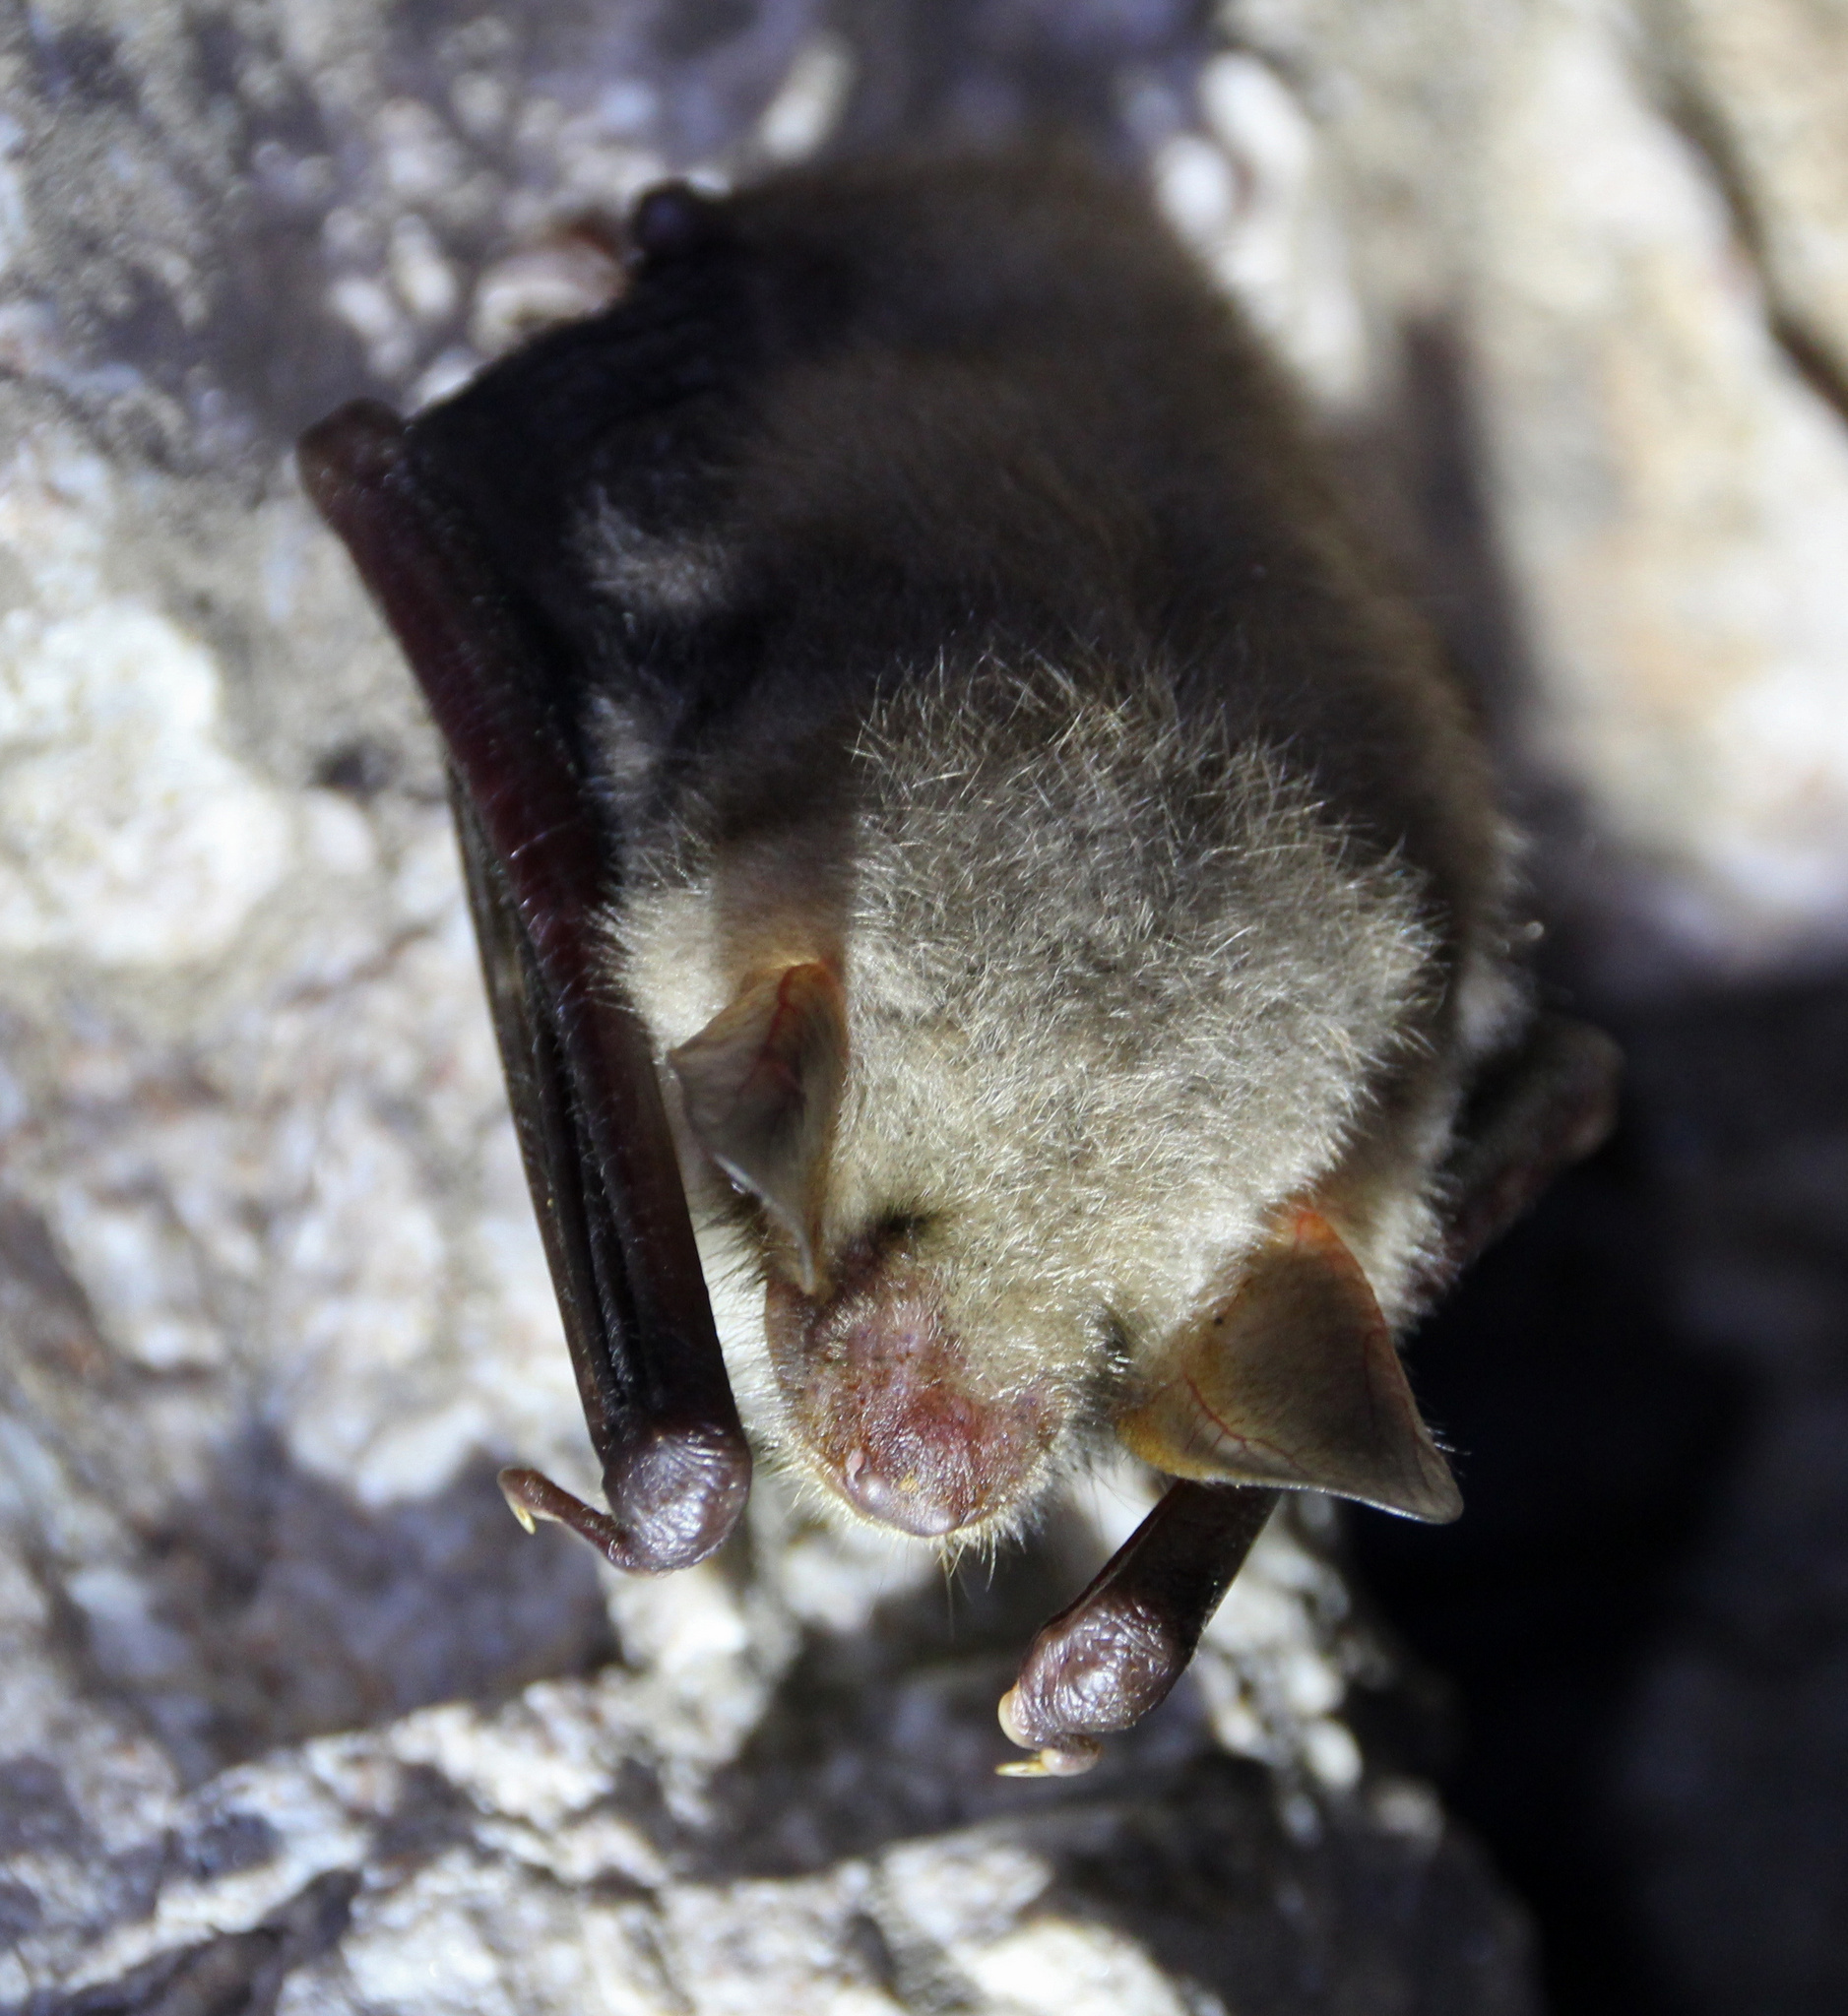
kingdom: Animalia
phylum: Chordata
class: Mammalia
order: Chiroptera
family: Vespertilionidae
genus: Myotis
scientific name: Myotis myotis
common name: Greater mouse-eared bat
